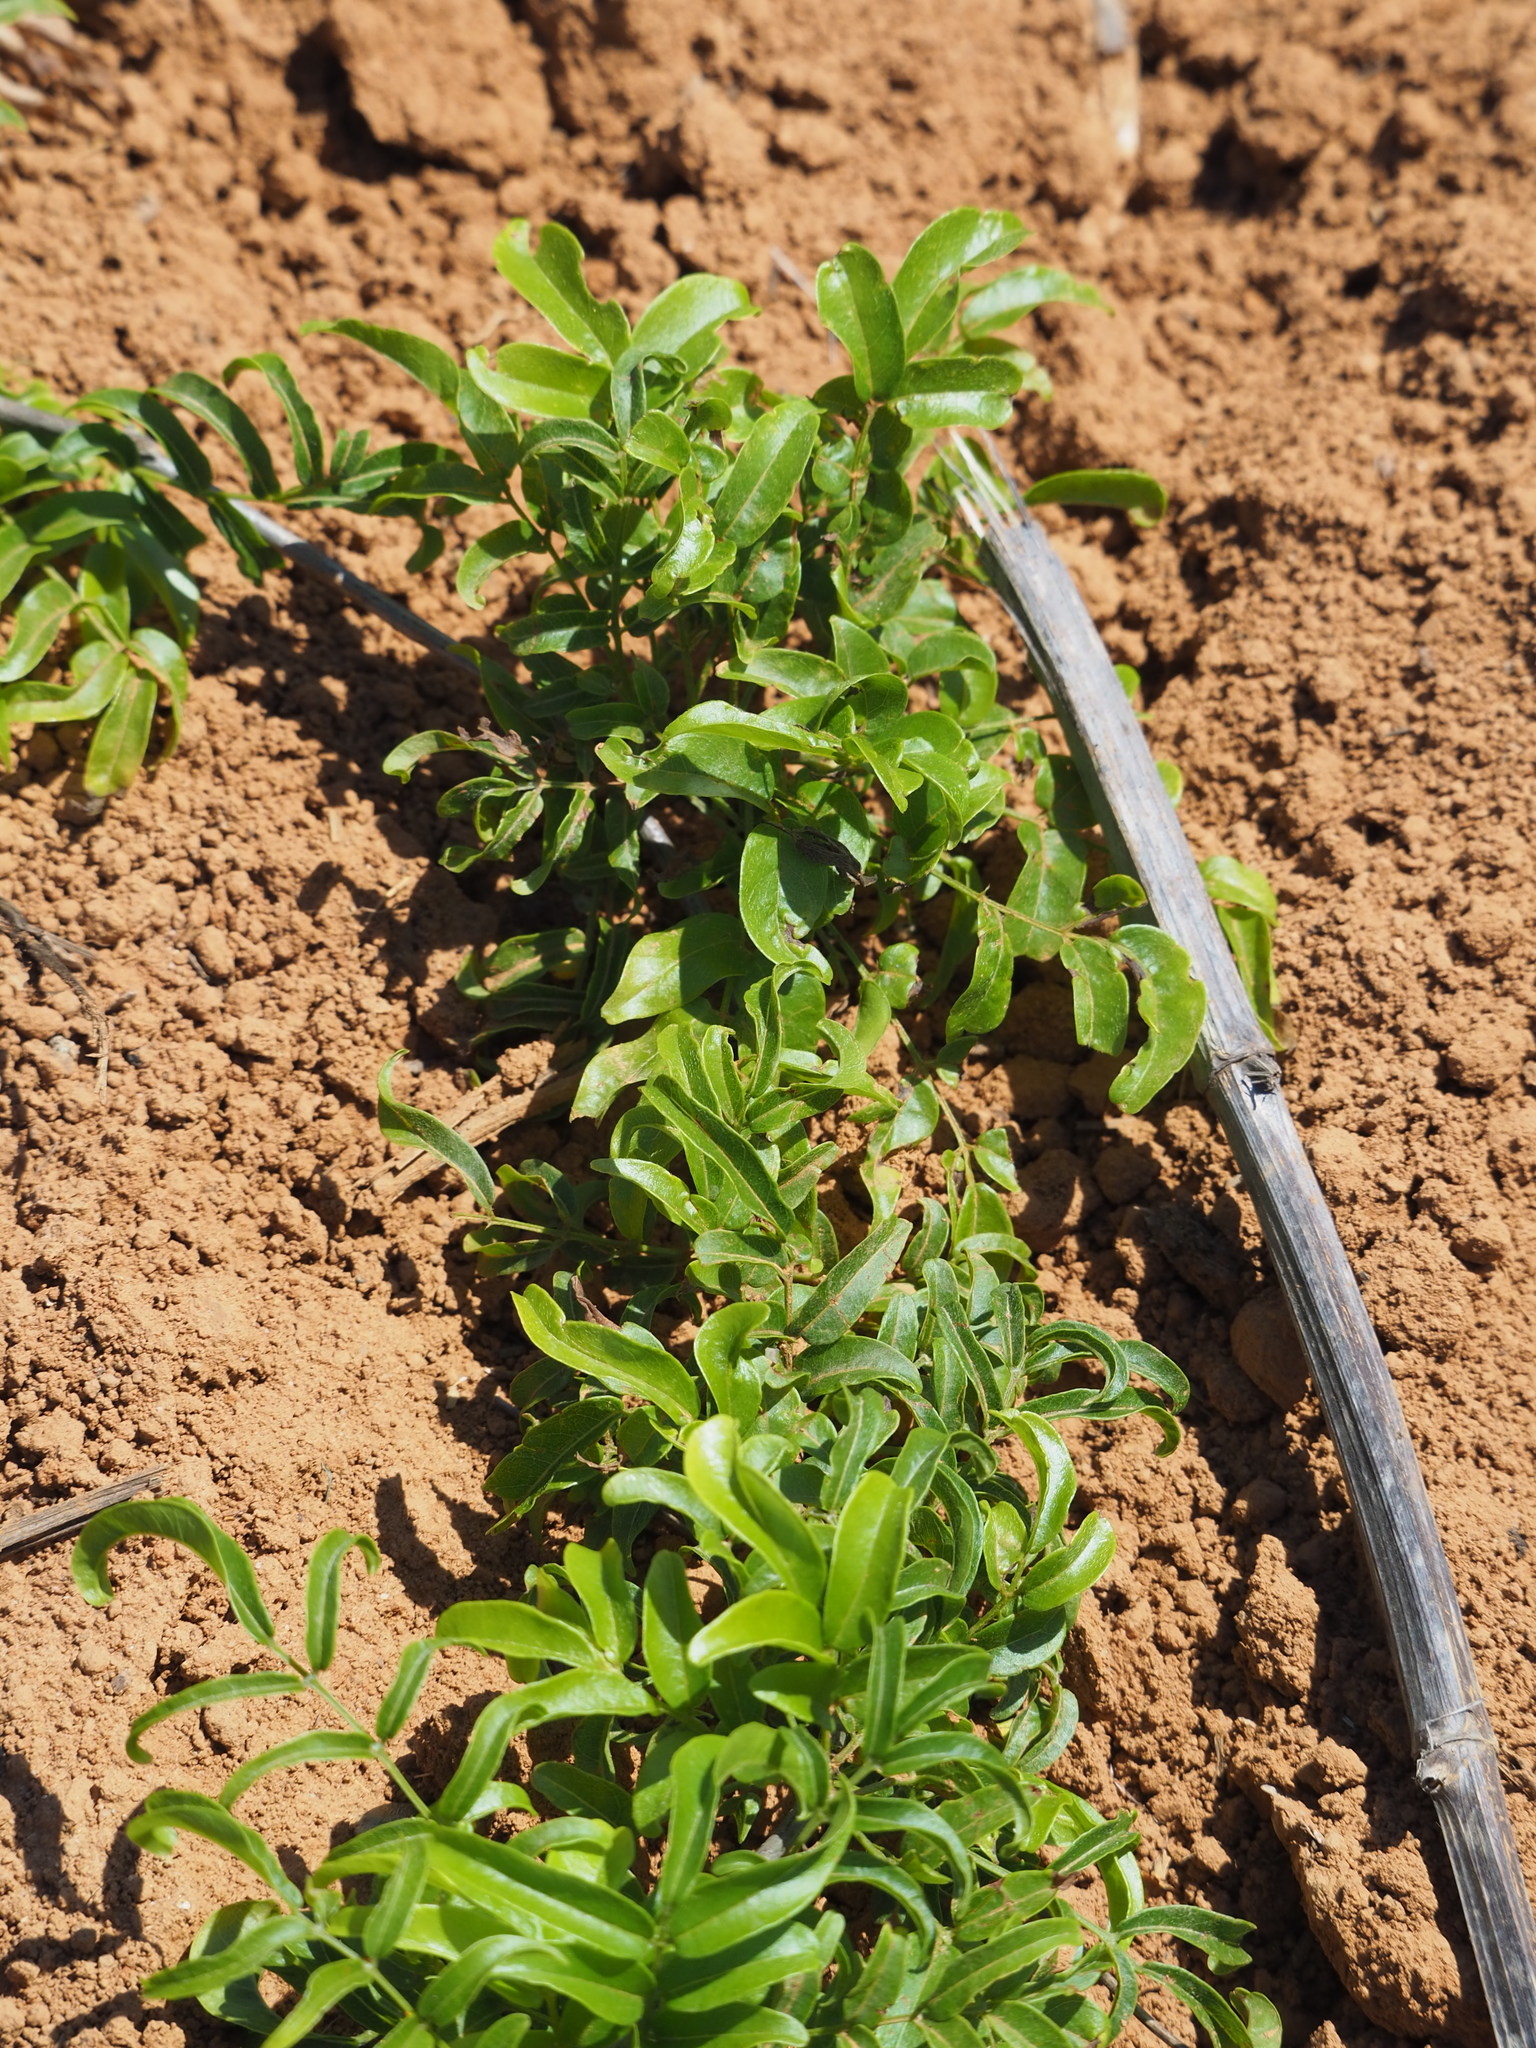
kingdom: Plantae
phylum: Tracheophyta
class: Magnoliopsida
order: Fabales
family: Fabaceae
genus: Wisteriopsis
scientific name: Wisteriopsis reticulata
